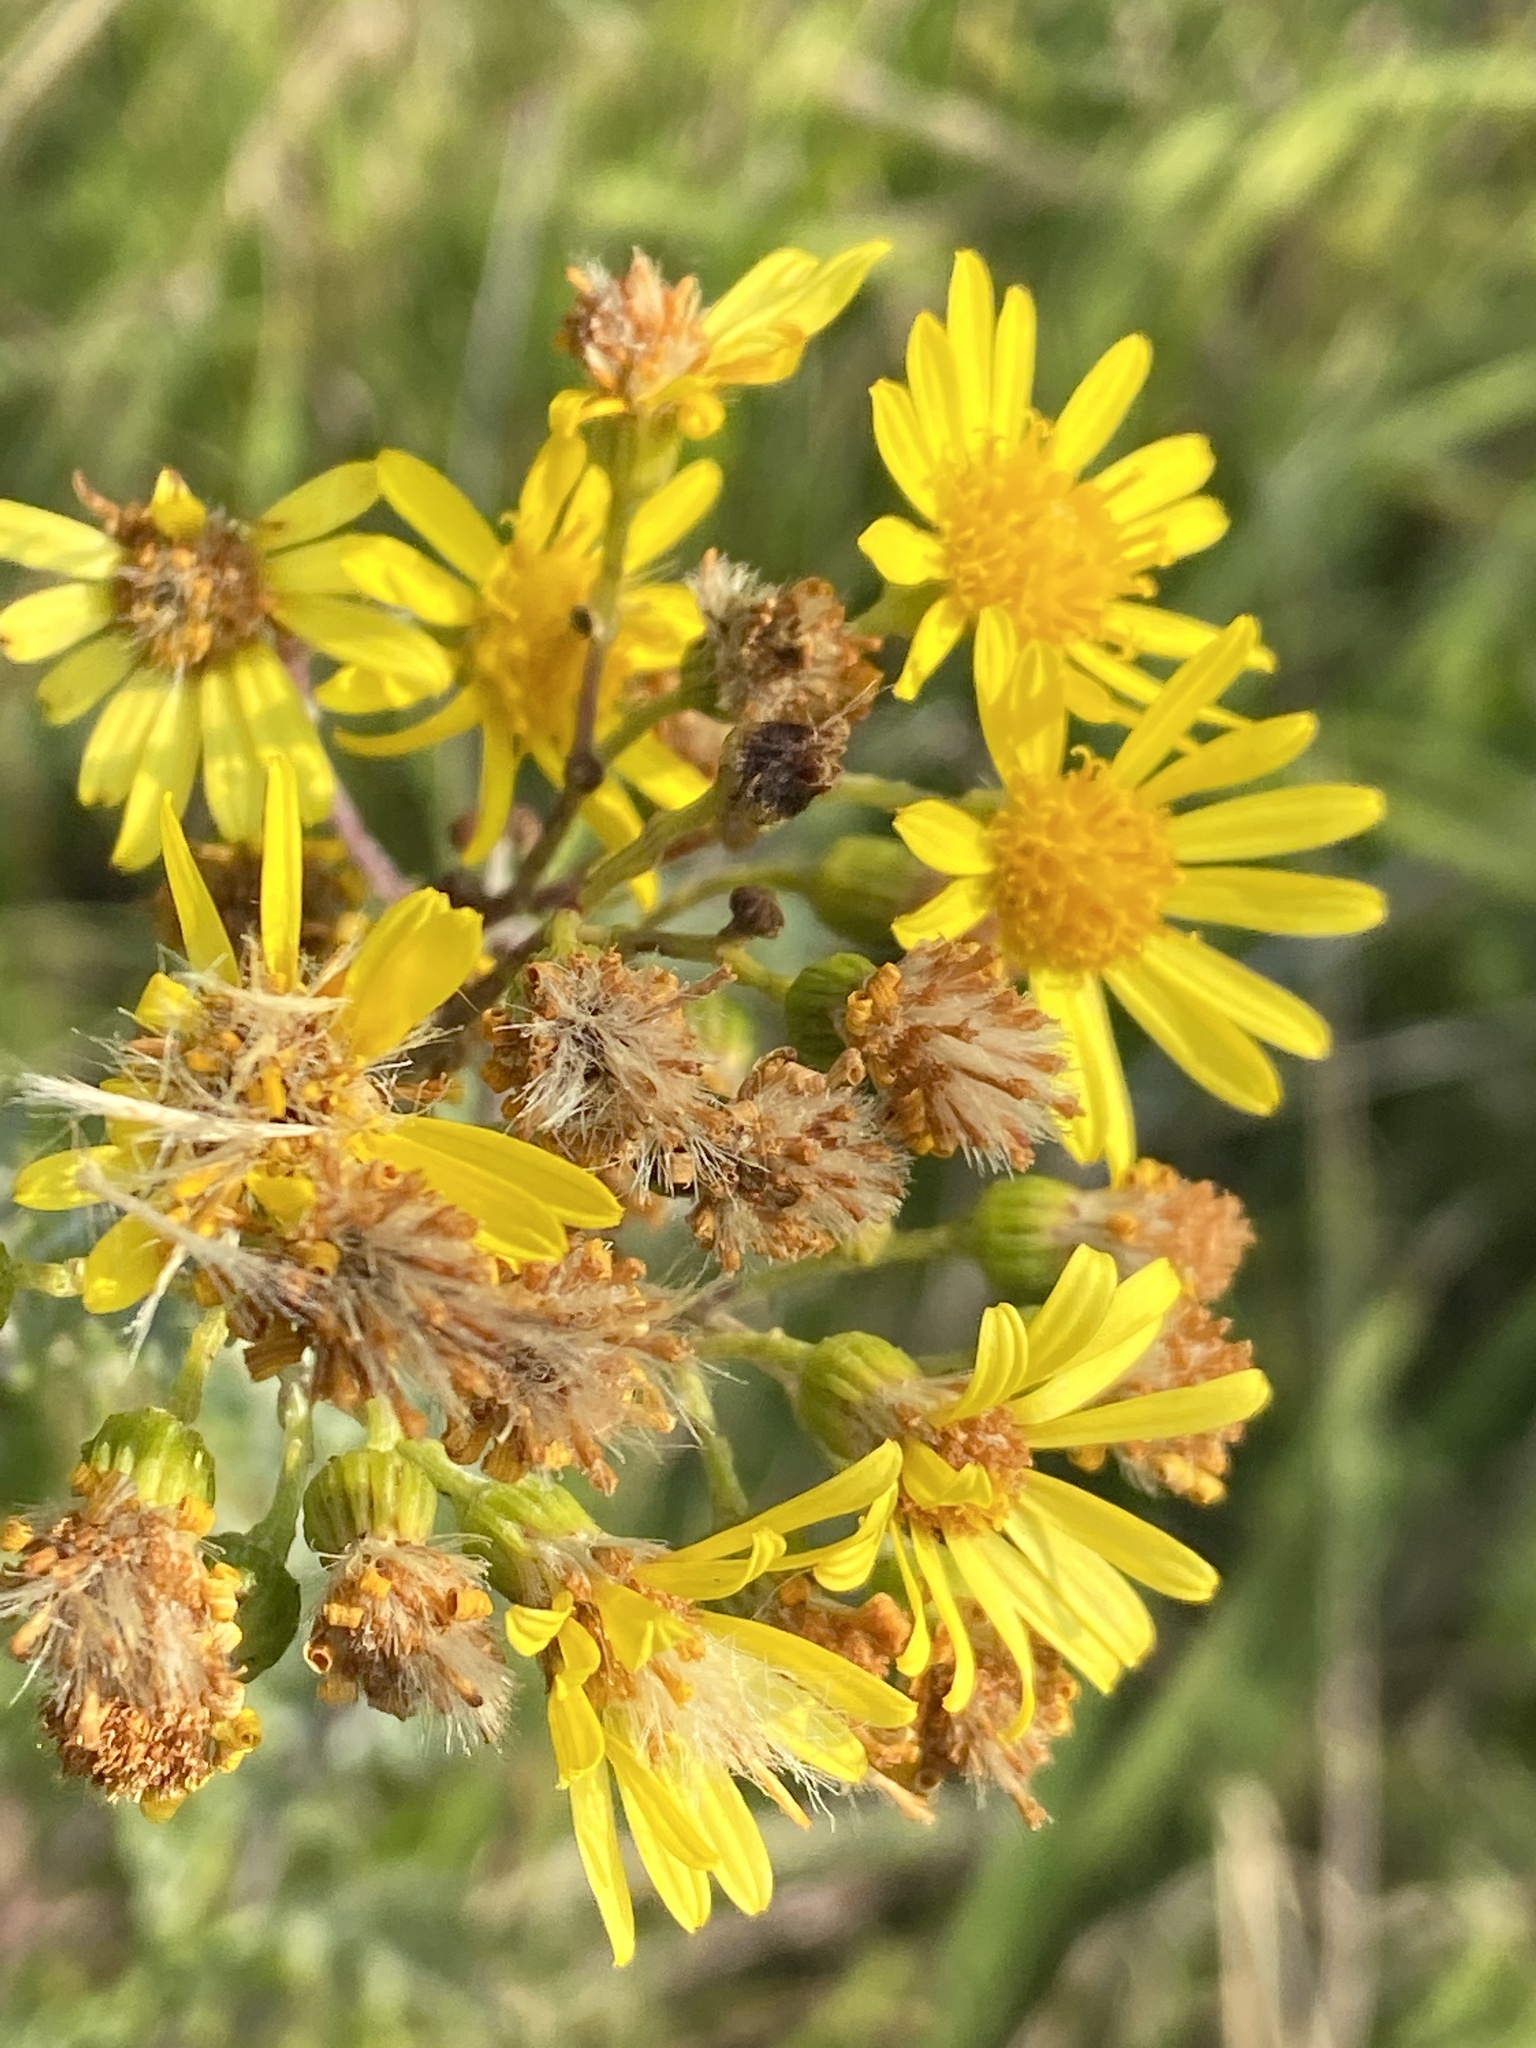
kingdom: Plantae
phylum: Tracheophyta
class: Magnoliopsida
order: Asterales
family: Asteraceae
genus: Jacobaea
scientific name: Jacobaea vulgaris
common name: Stinking willie
